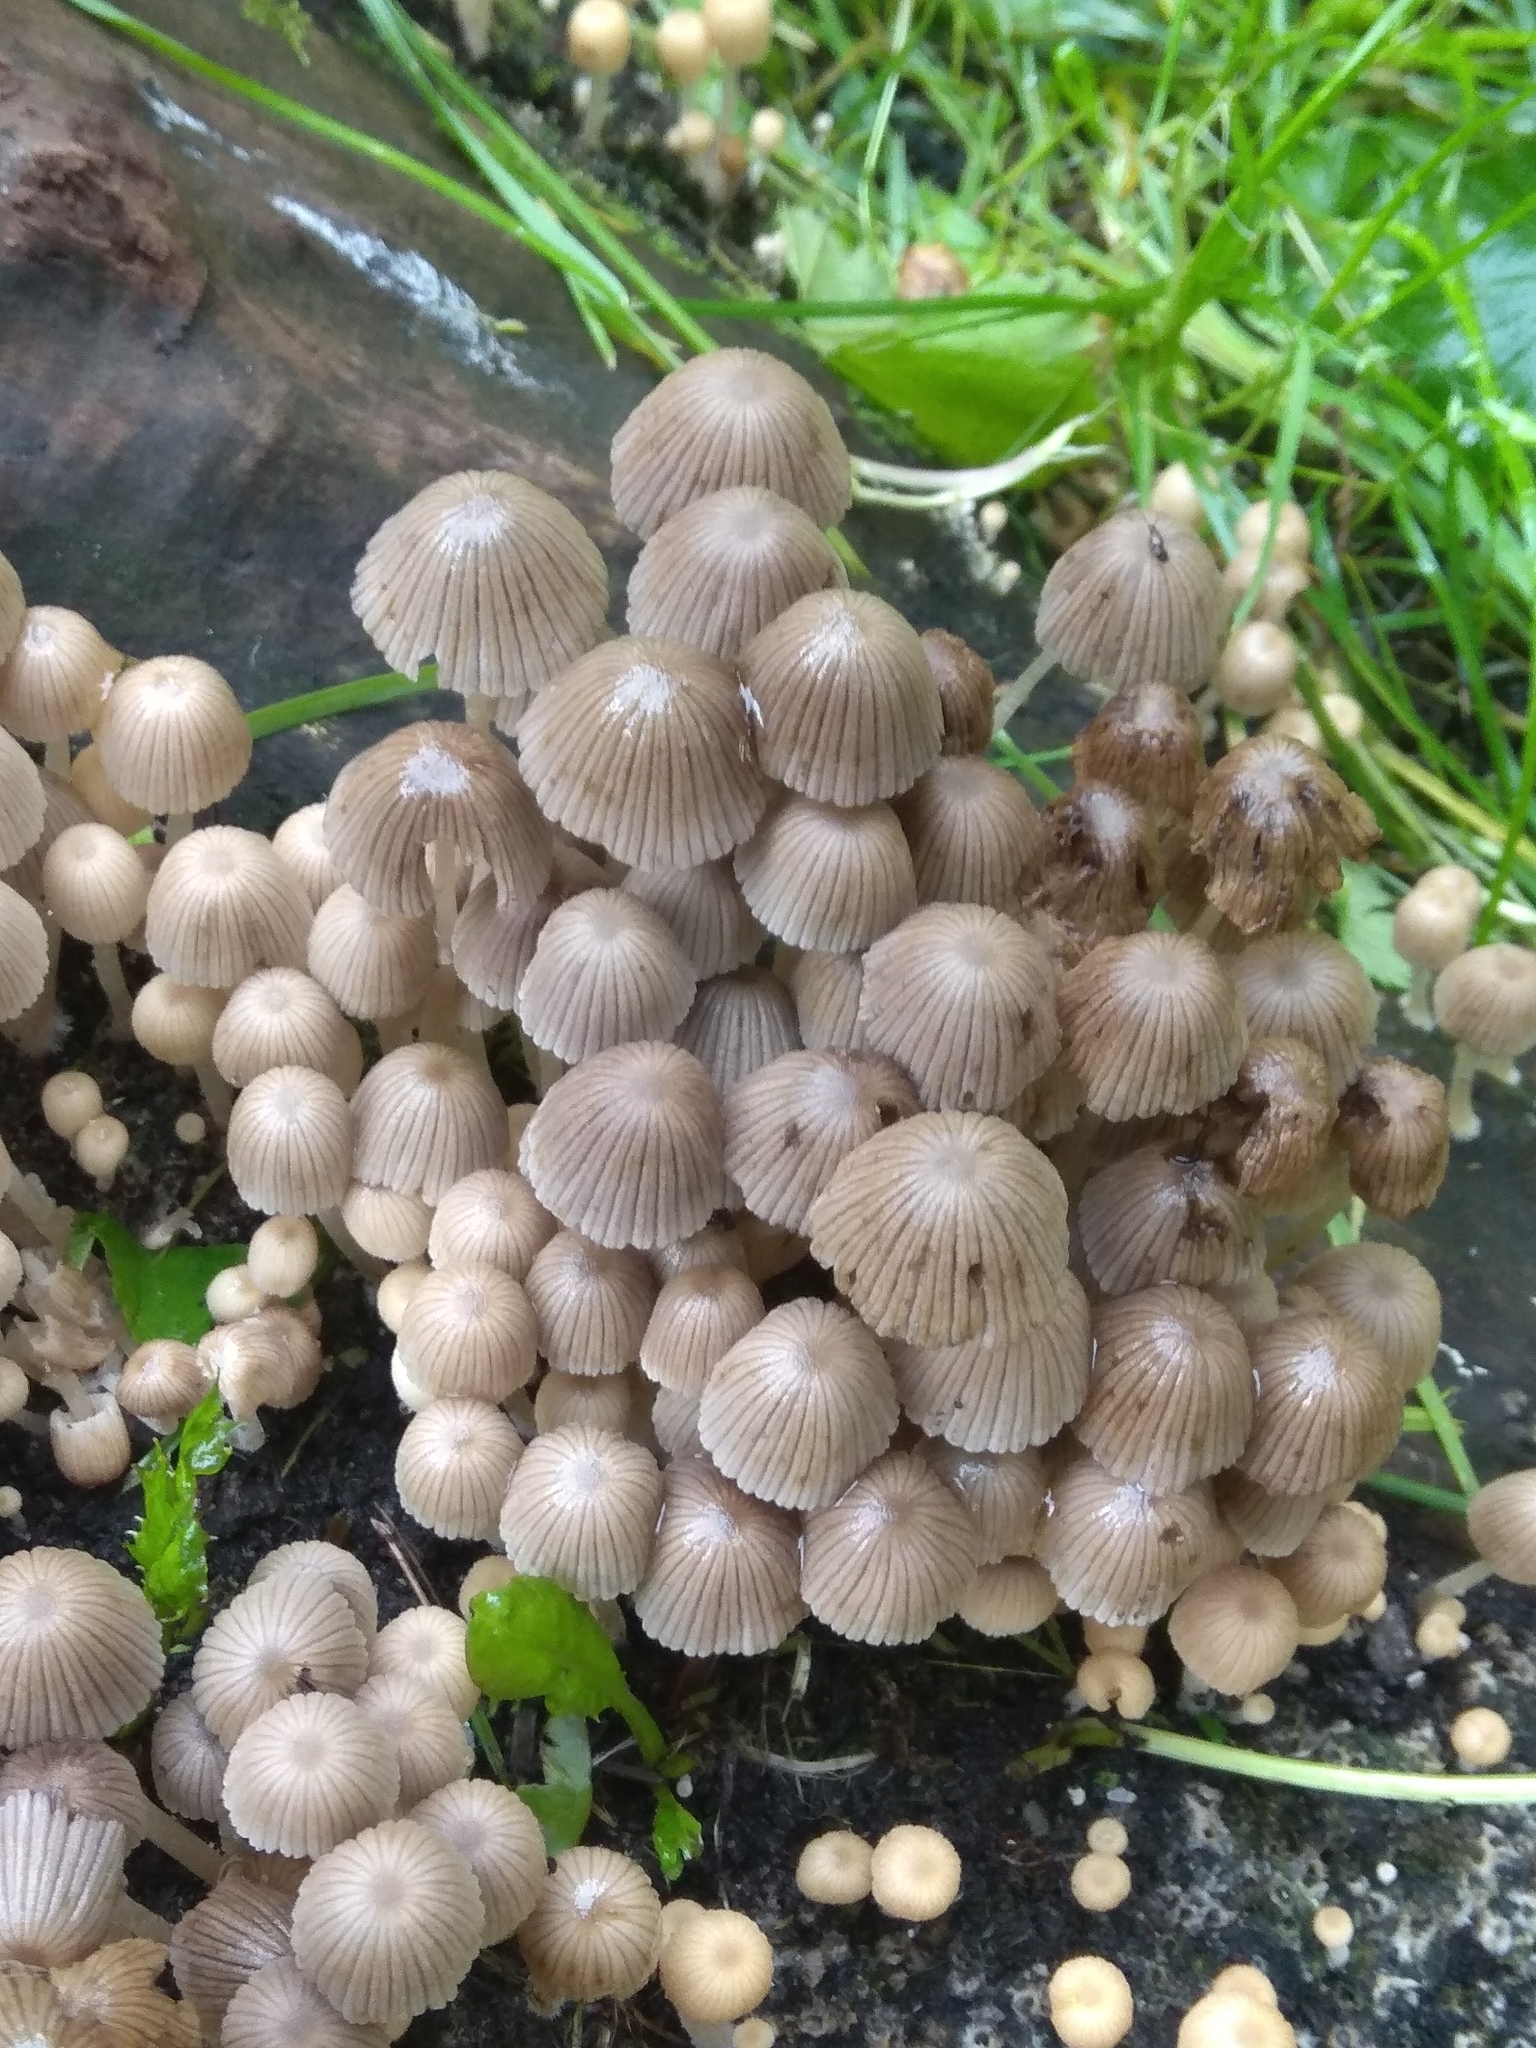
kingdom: Fungi
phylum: Basidiomycota
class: Agaricomycetes
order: Agaricales
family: Psathyrellaceae
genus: Coprinellus
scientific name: Coprinellus disseminatus
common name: Fairies' bonnets
